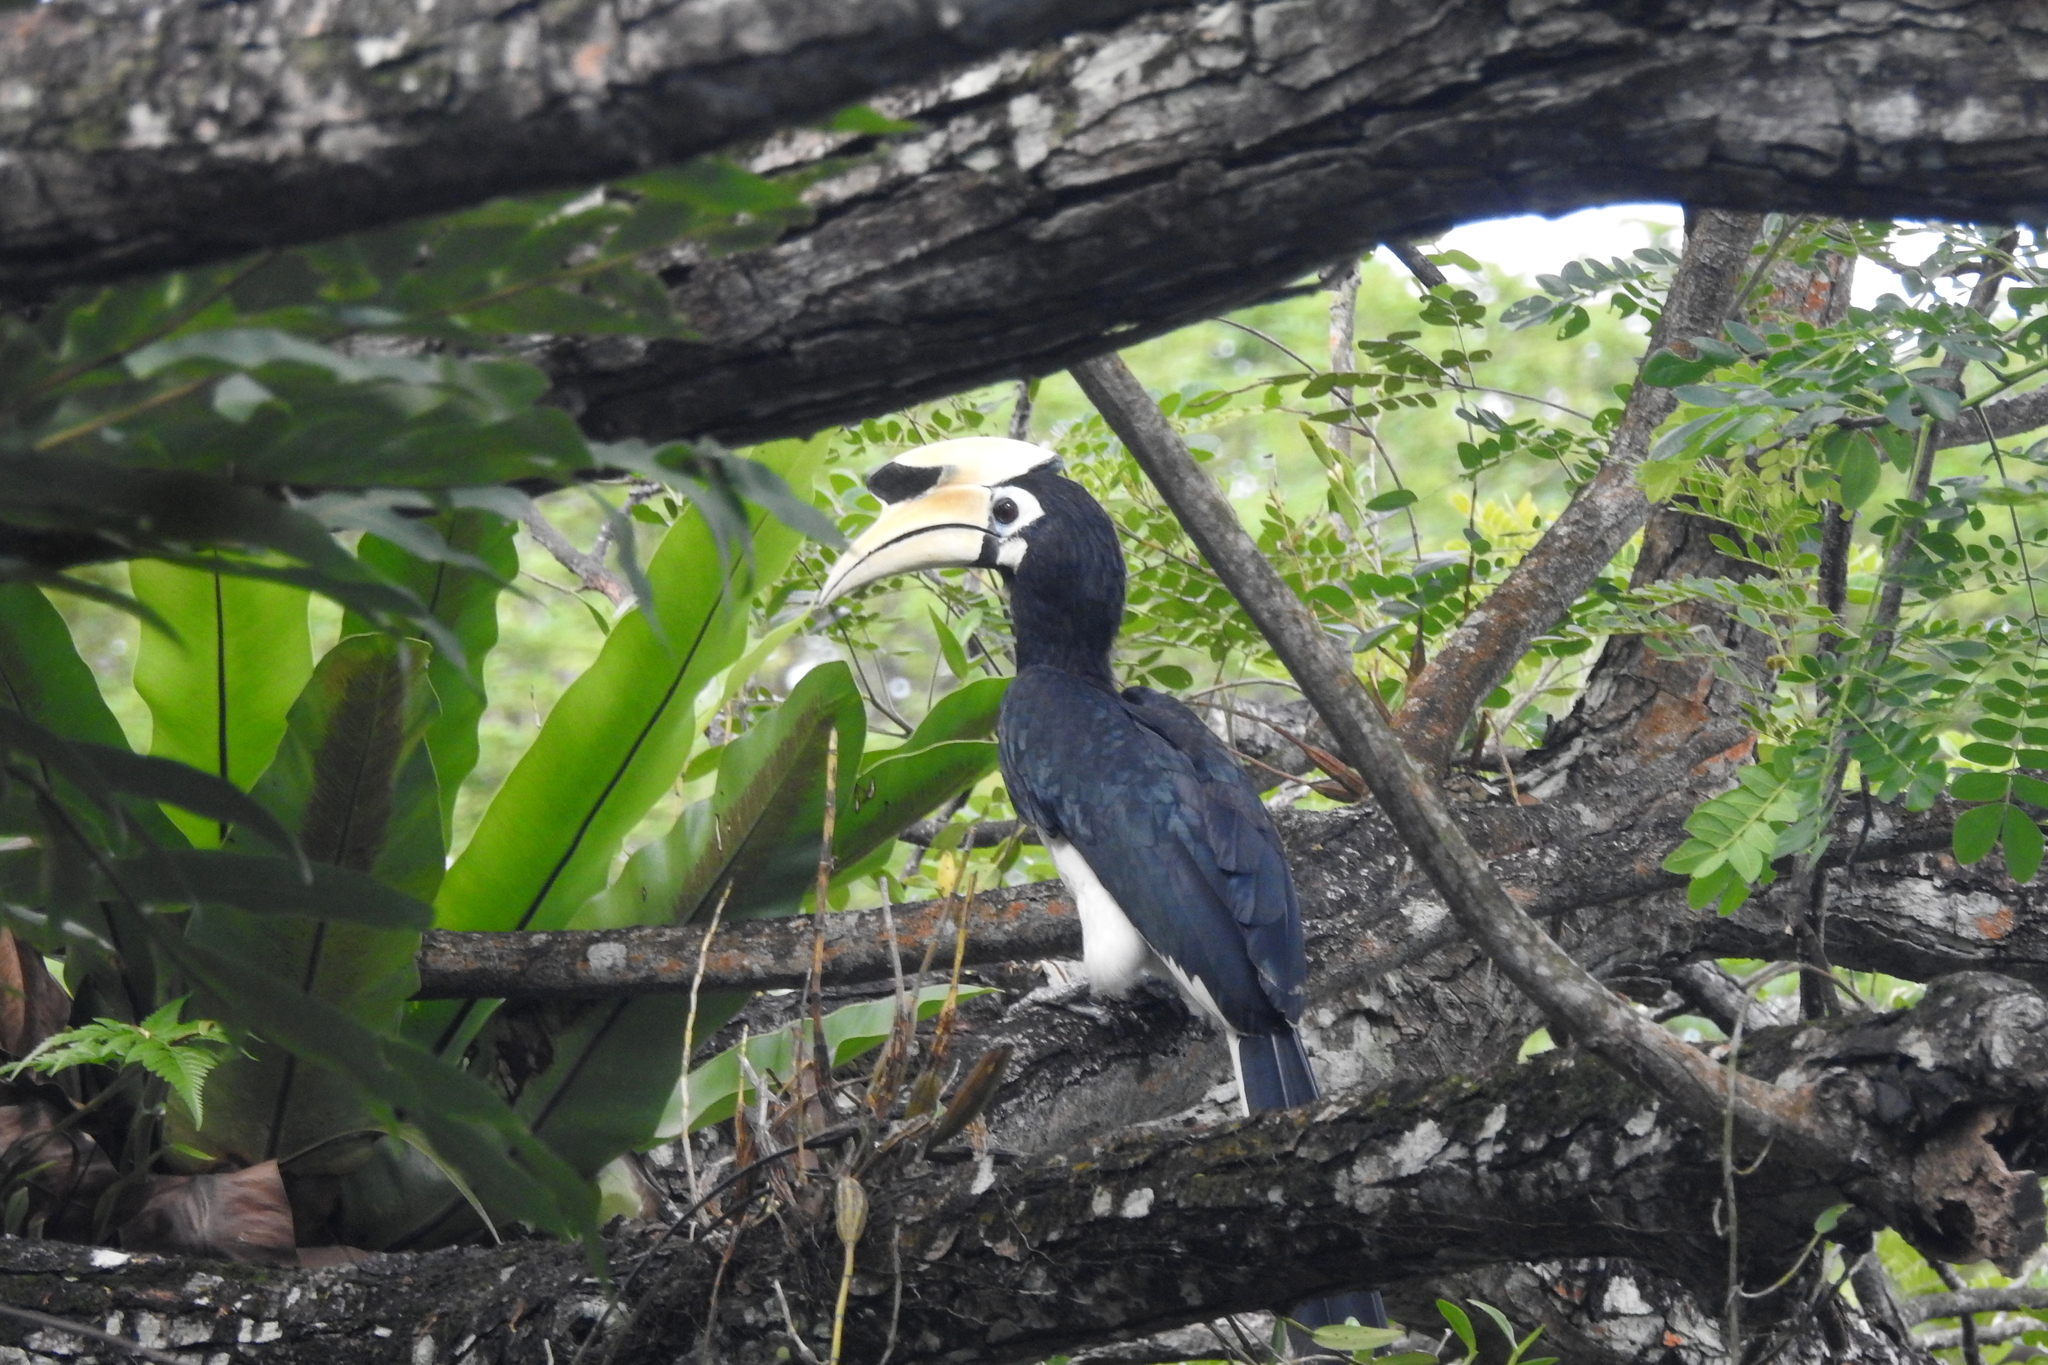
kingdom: Animalia
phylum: Chordata
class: Aves
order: Bucerotiformes
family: Bucerotidae
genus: Anthracoceros
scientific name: Anthracoceros albirostris
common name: Oriental pied-hornbill
